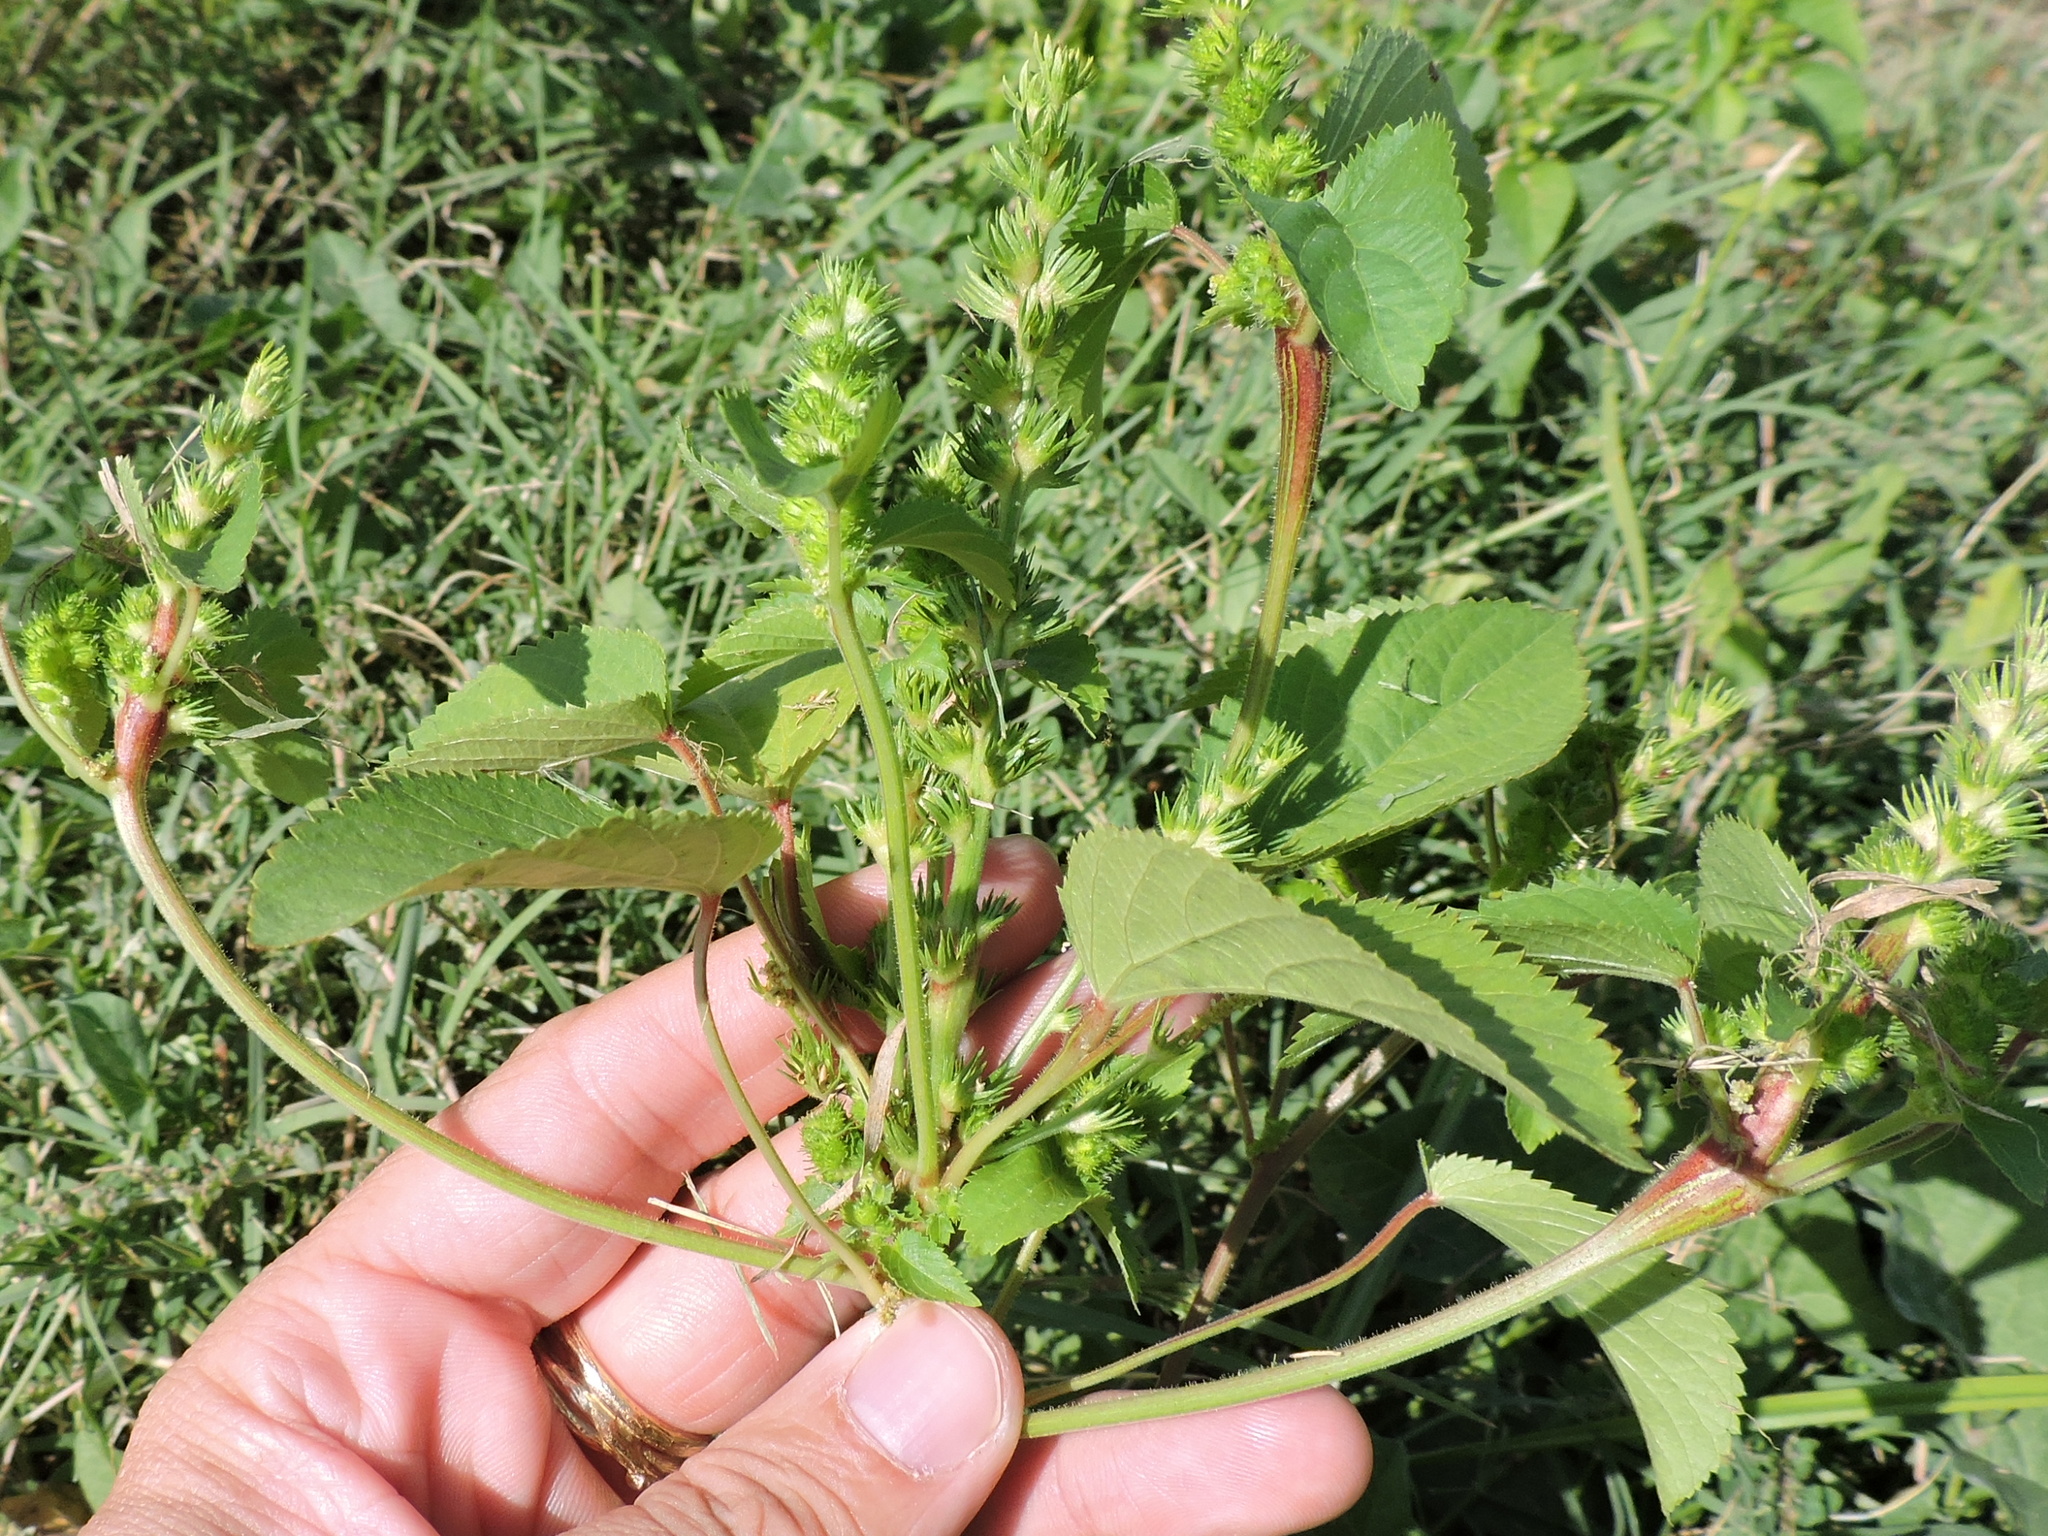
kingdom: Plantae
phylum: Tracheophyta
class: Magnoliopsida
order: Malpighiales
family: Euphorbiaceae
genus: Acalypha
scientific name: Acalypha ostryifolia
